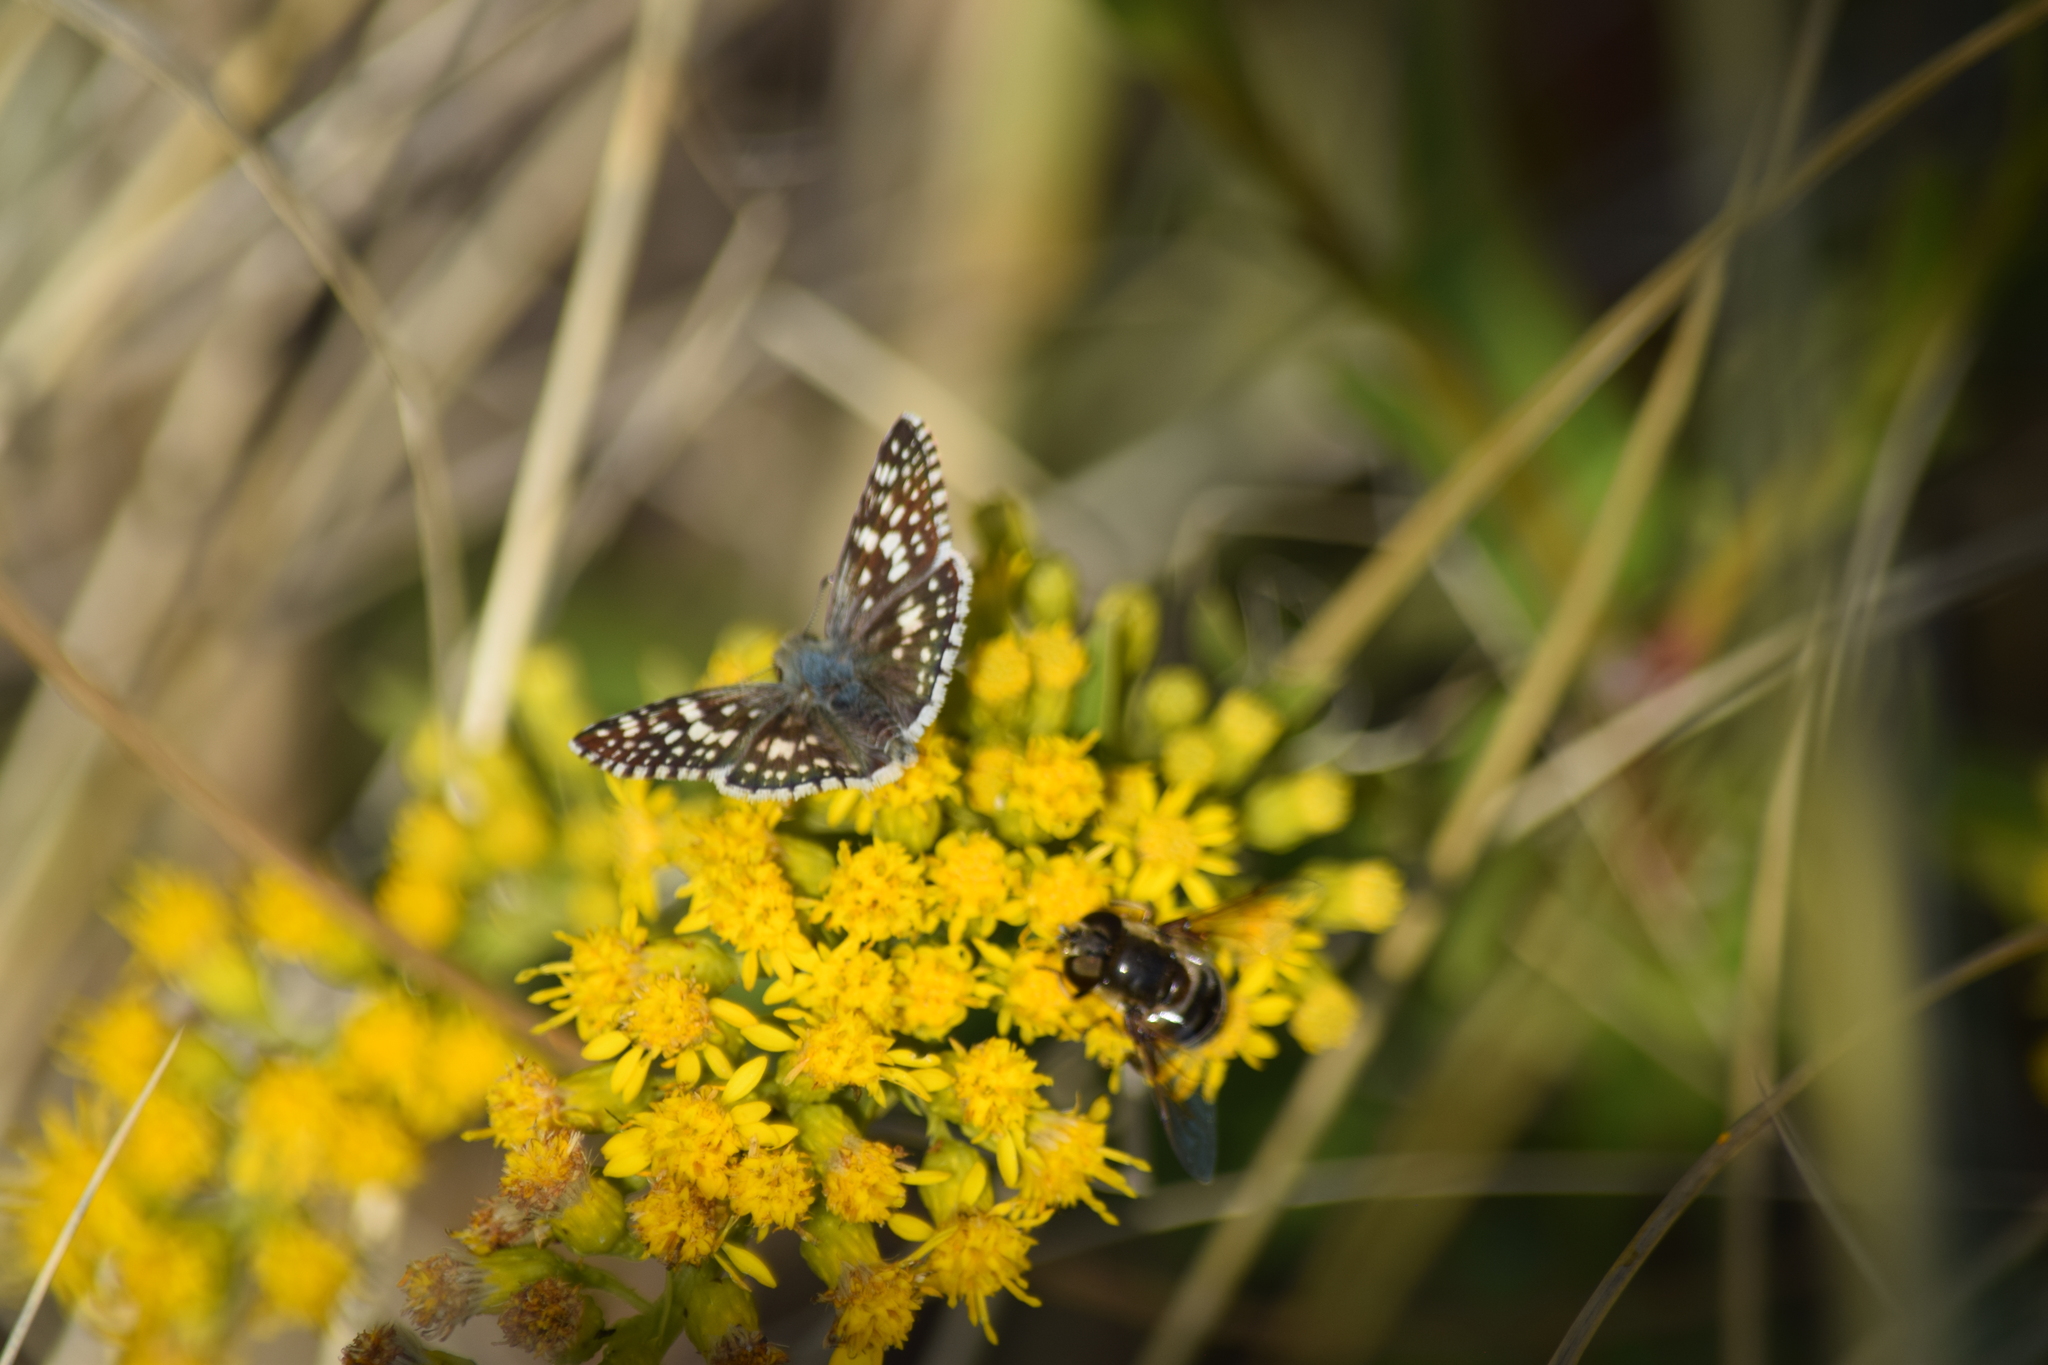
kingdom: Animalia
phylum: Arthropoda
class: Insecta
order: Lepidoptera
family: Hesperiidae
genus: Burnsius
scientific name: Burnsius communis
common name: Common checkered-skipper
